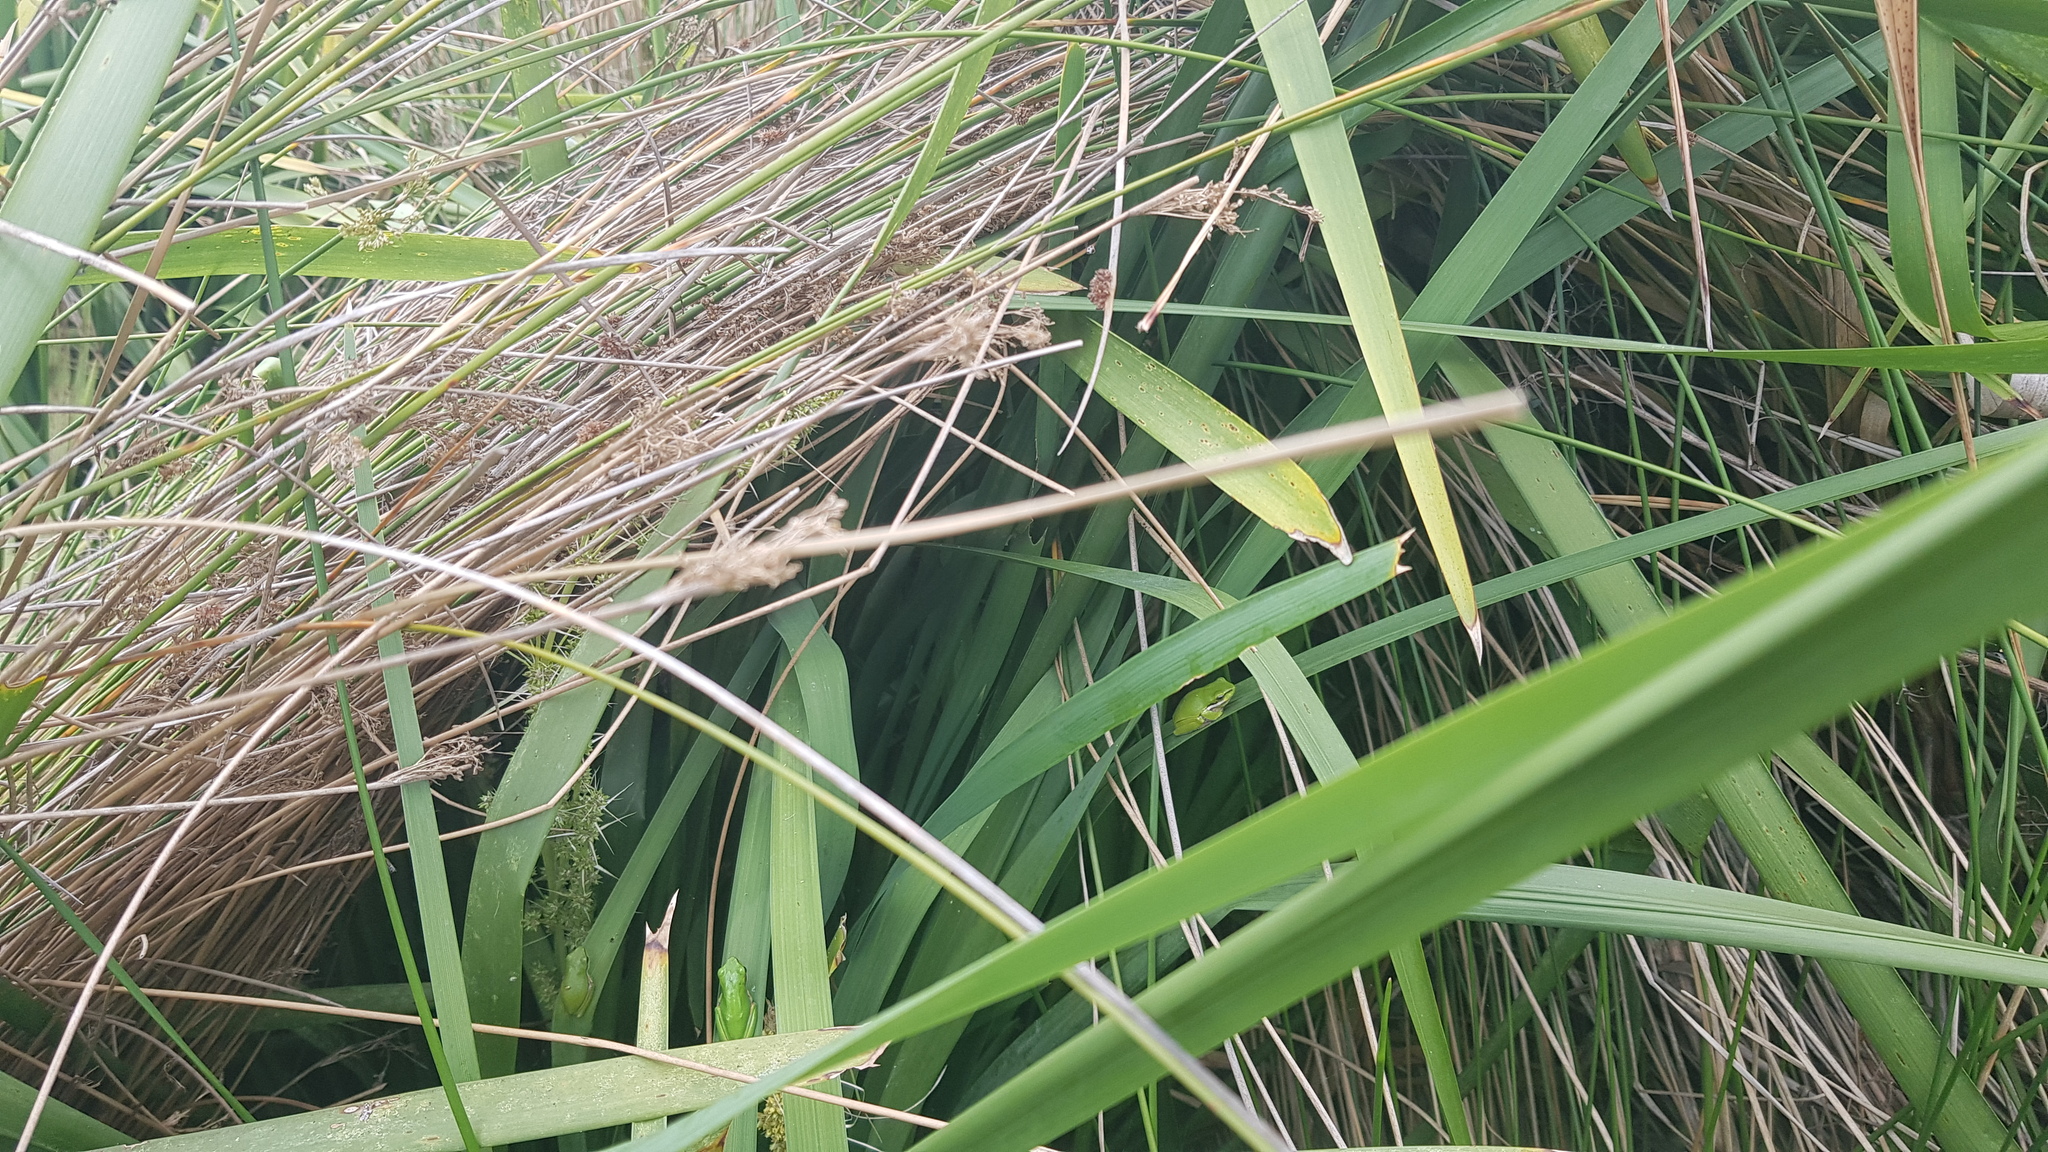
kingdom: Animalia
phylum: Chordata
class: Amphibia
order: Anura
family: Pelodryadidae
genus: Litoria
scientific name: Litoria fallax
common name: Eastern dwarf treefrog
